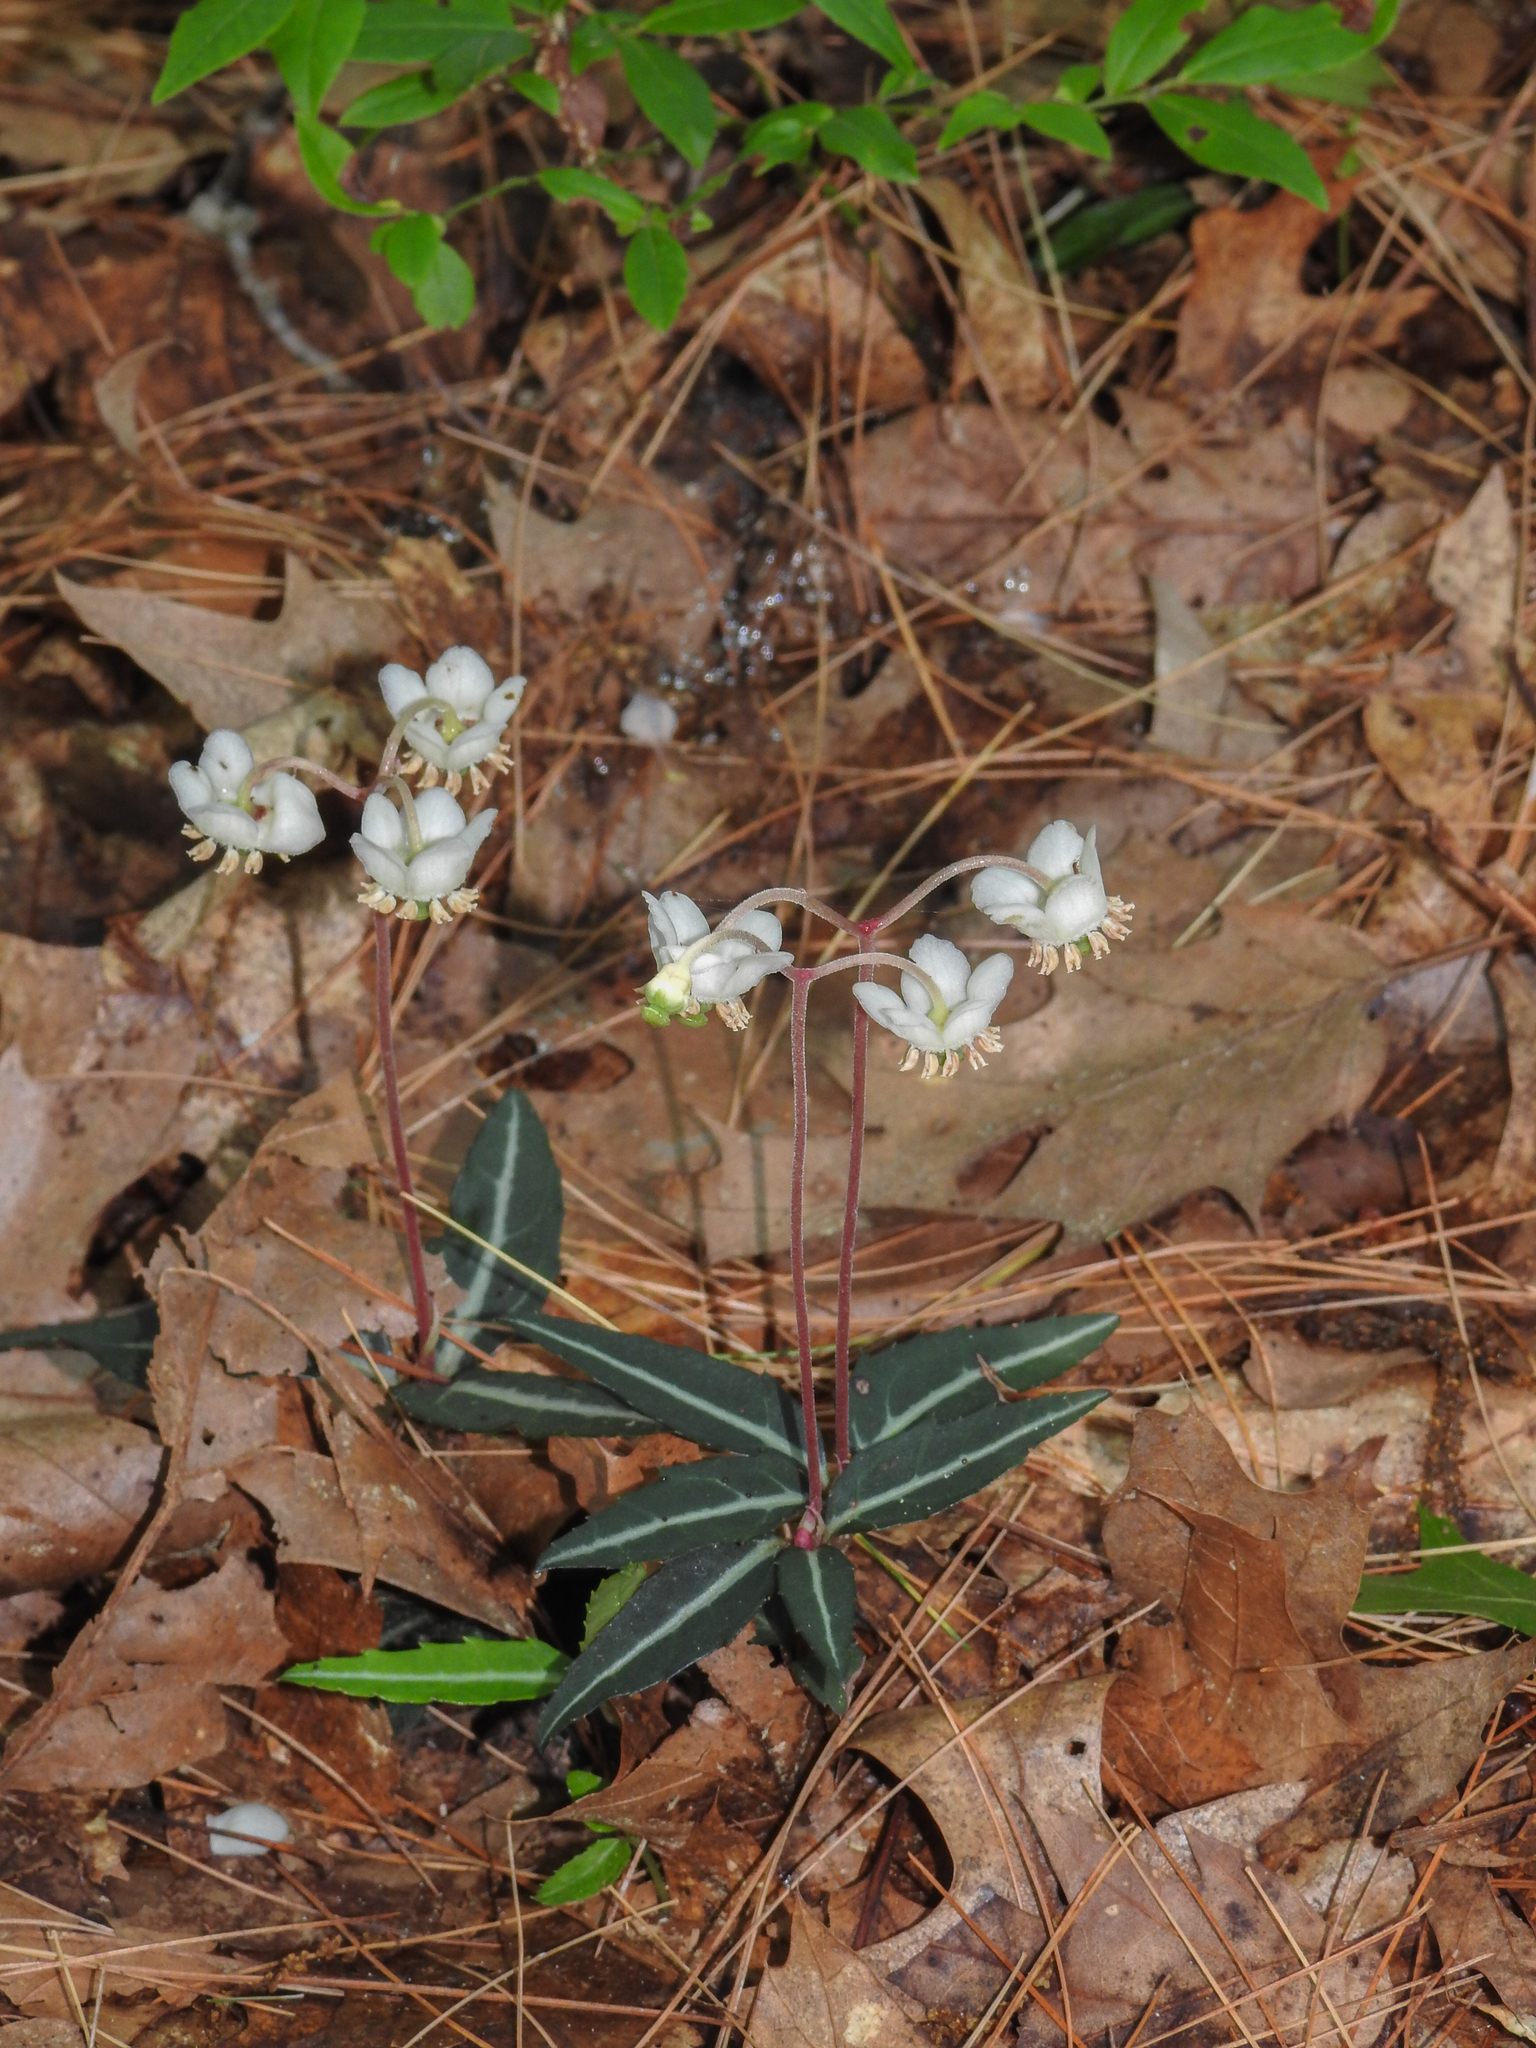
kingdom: Plantae
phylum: Tracheophyta
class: Magnoliopsida
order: Ericales
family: Ericaceae
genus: Chimaphila
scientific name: Chimaphila maculata
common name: Spotted pipsissewa
